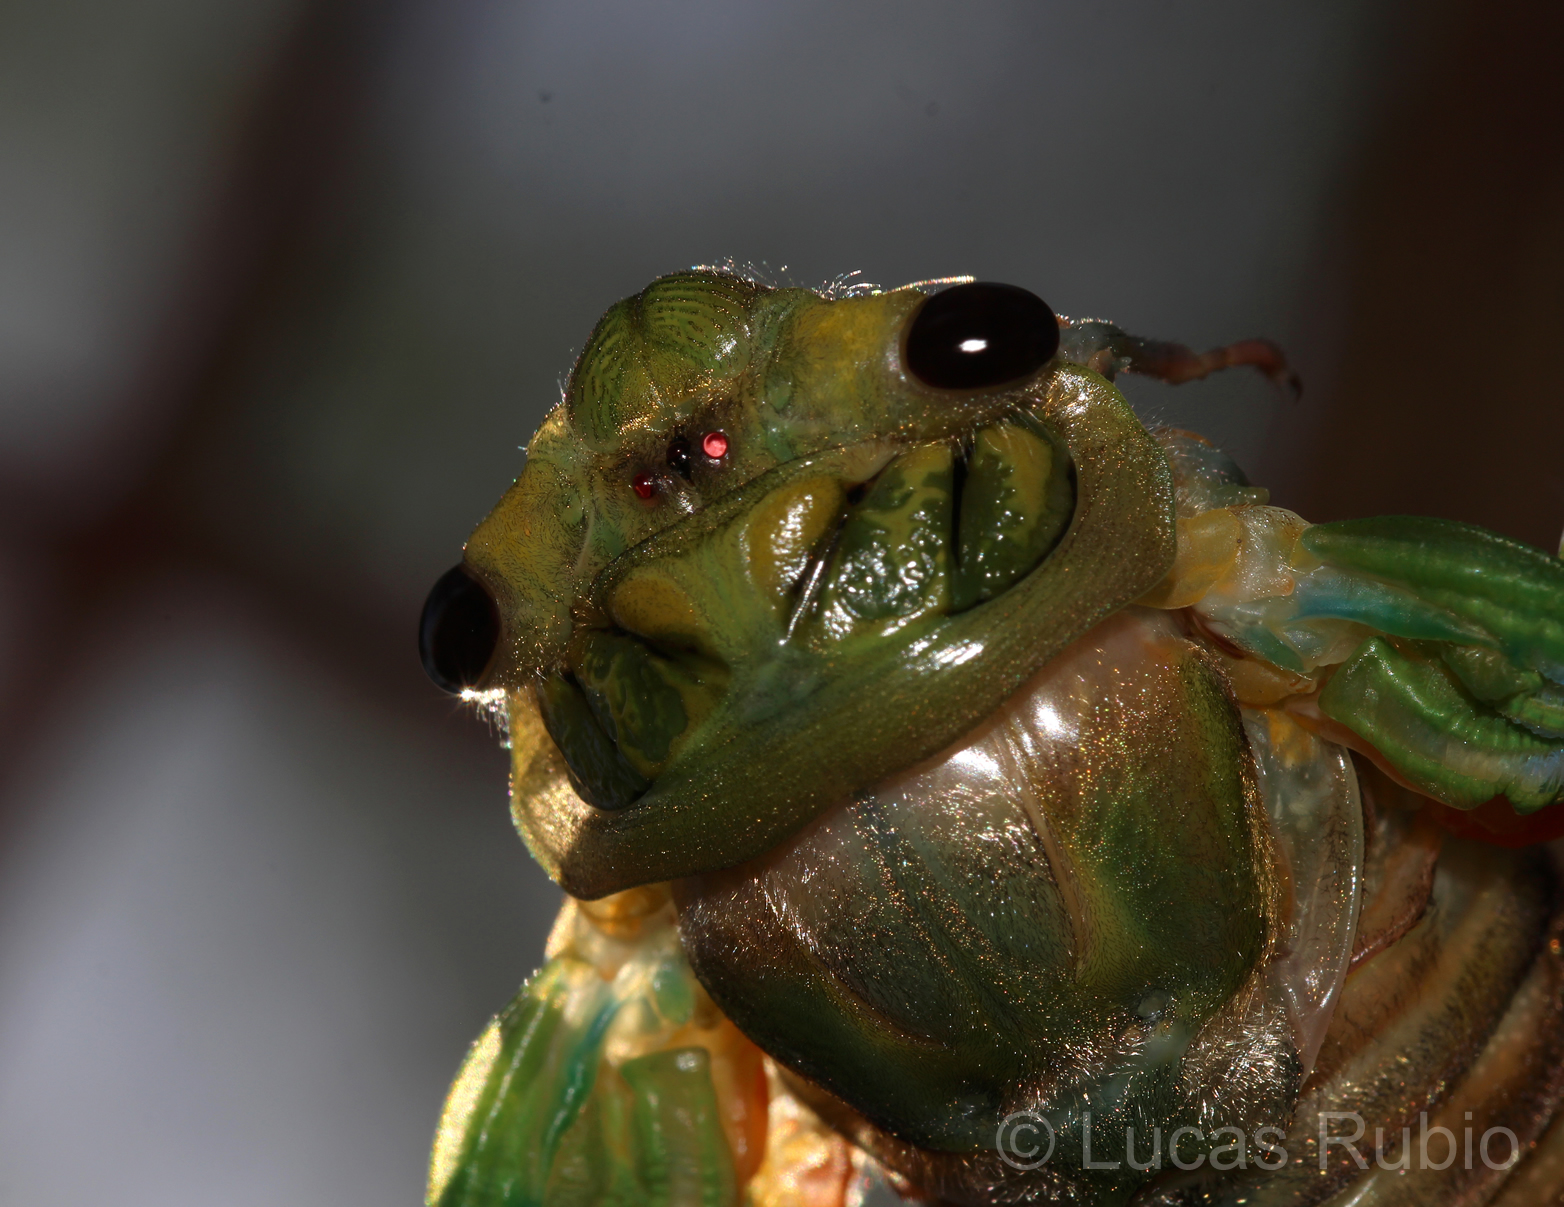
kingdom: Animalia
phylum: Arthropoda
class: Insecta
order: Hemiptera
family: Cicadidae
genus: Guyalna
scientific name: Guyalna bonaerensis
